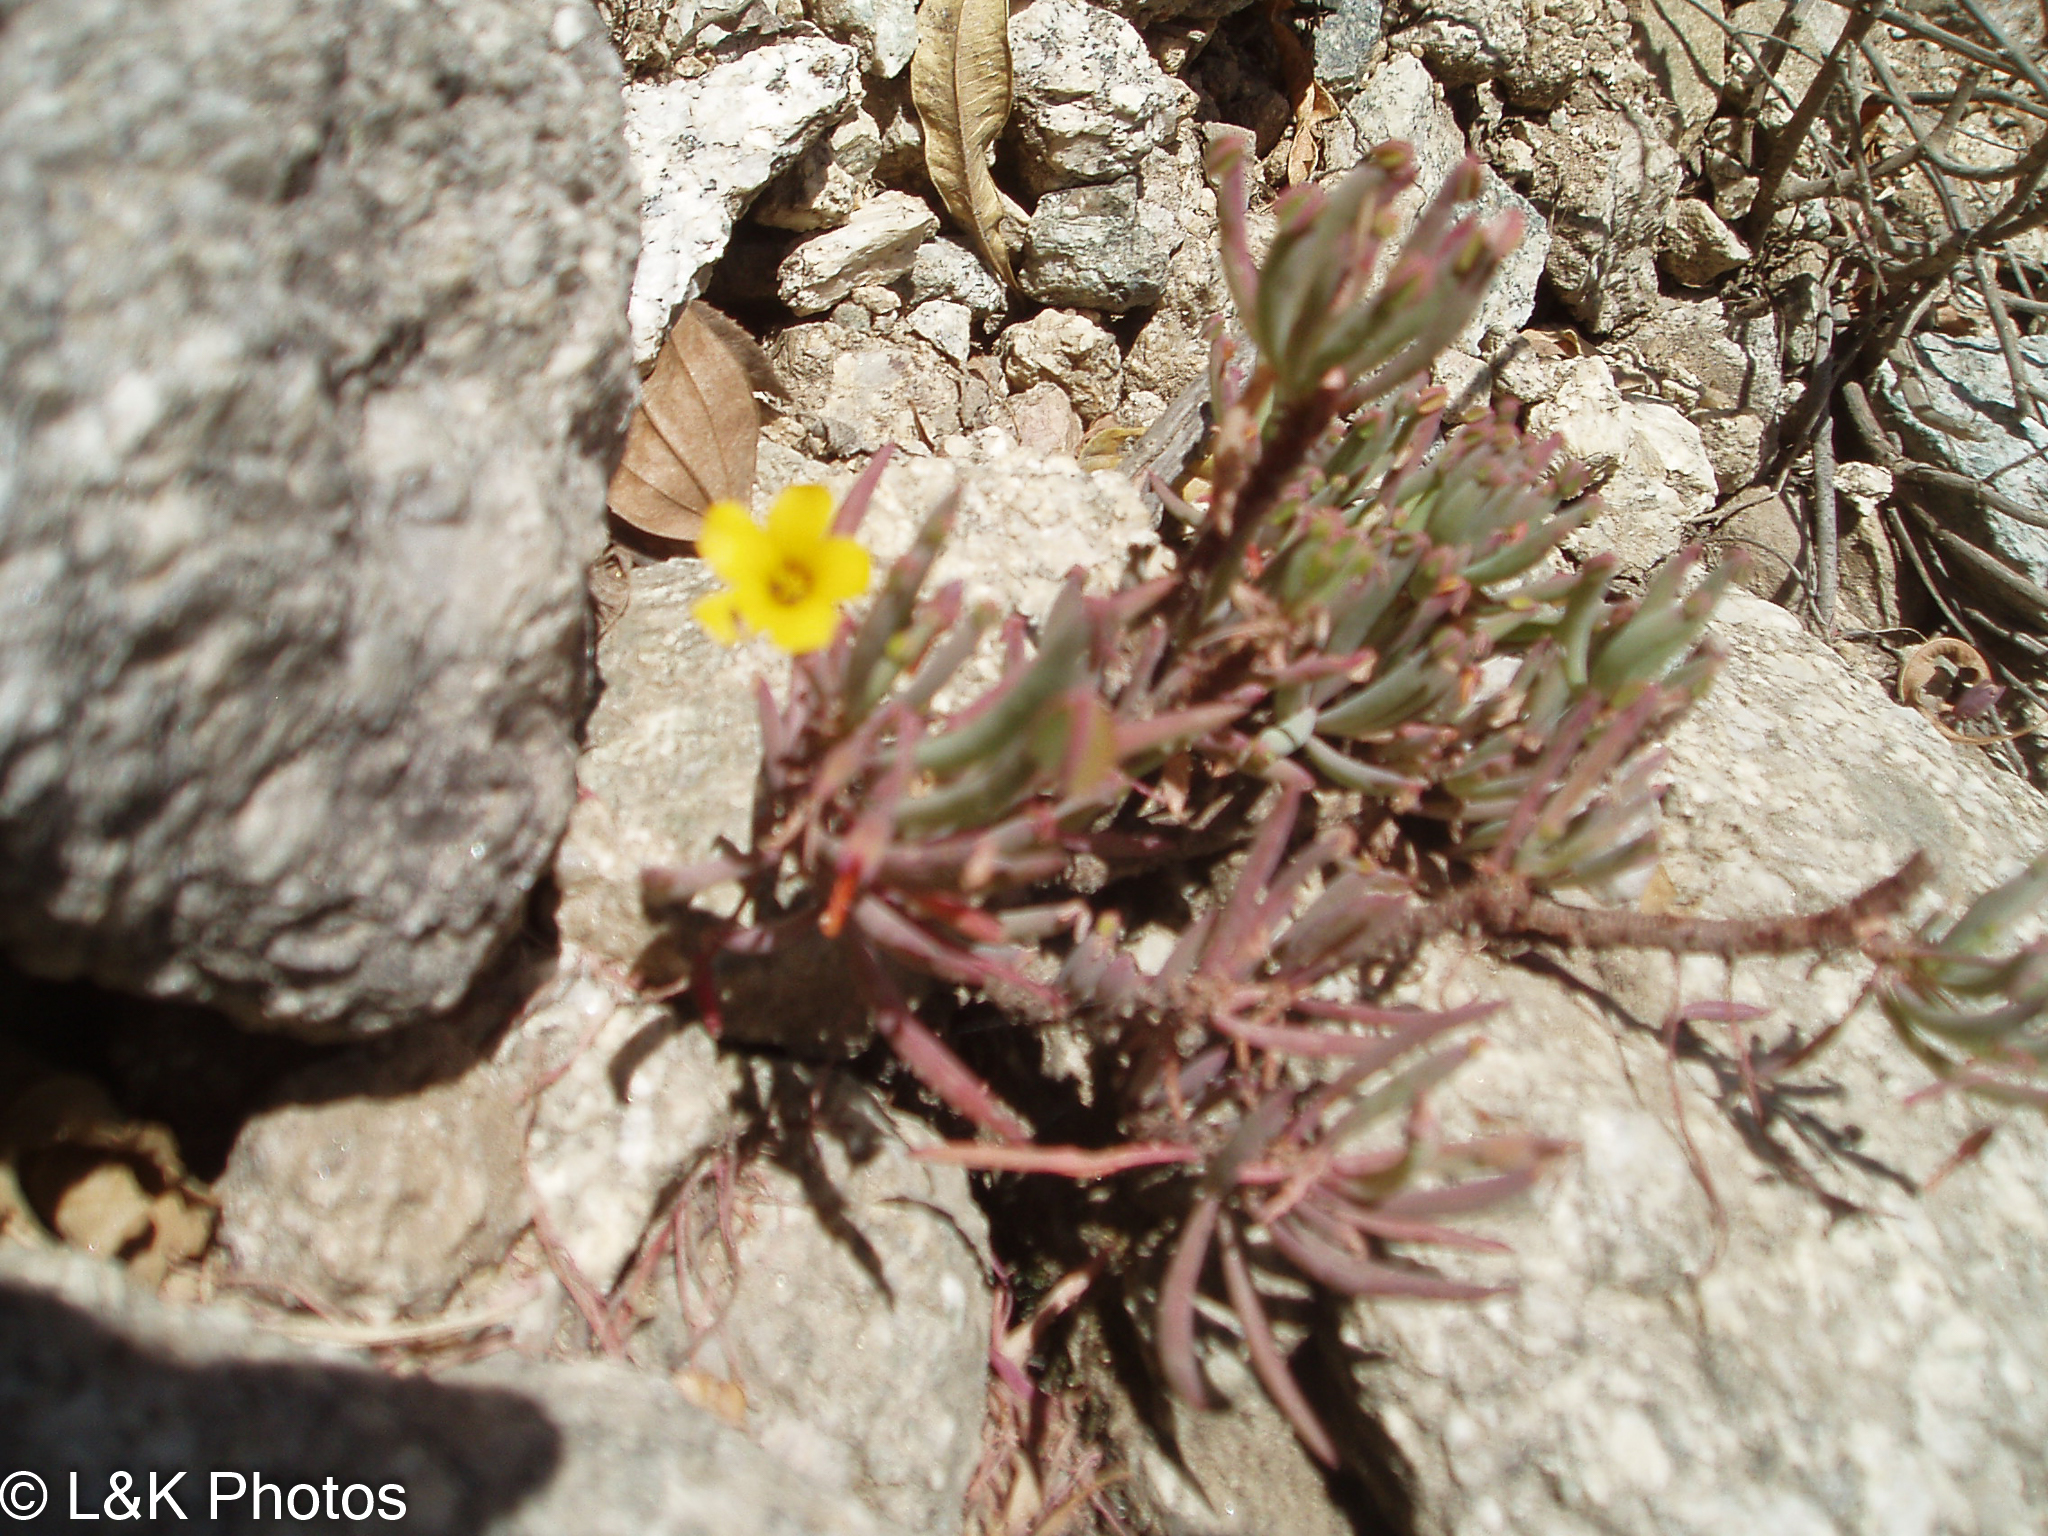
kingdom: Plantae
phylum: Tracheophyta
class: Magnoliopsida
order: Oxalidales
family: Oxalidaceae
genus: Oxalis
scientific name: Oxalis san-miguelii
